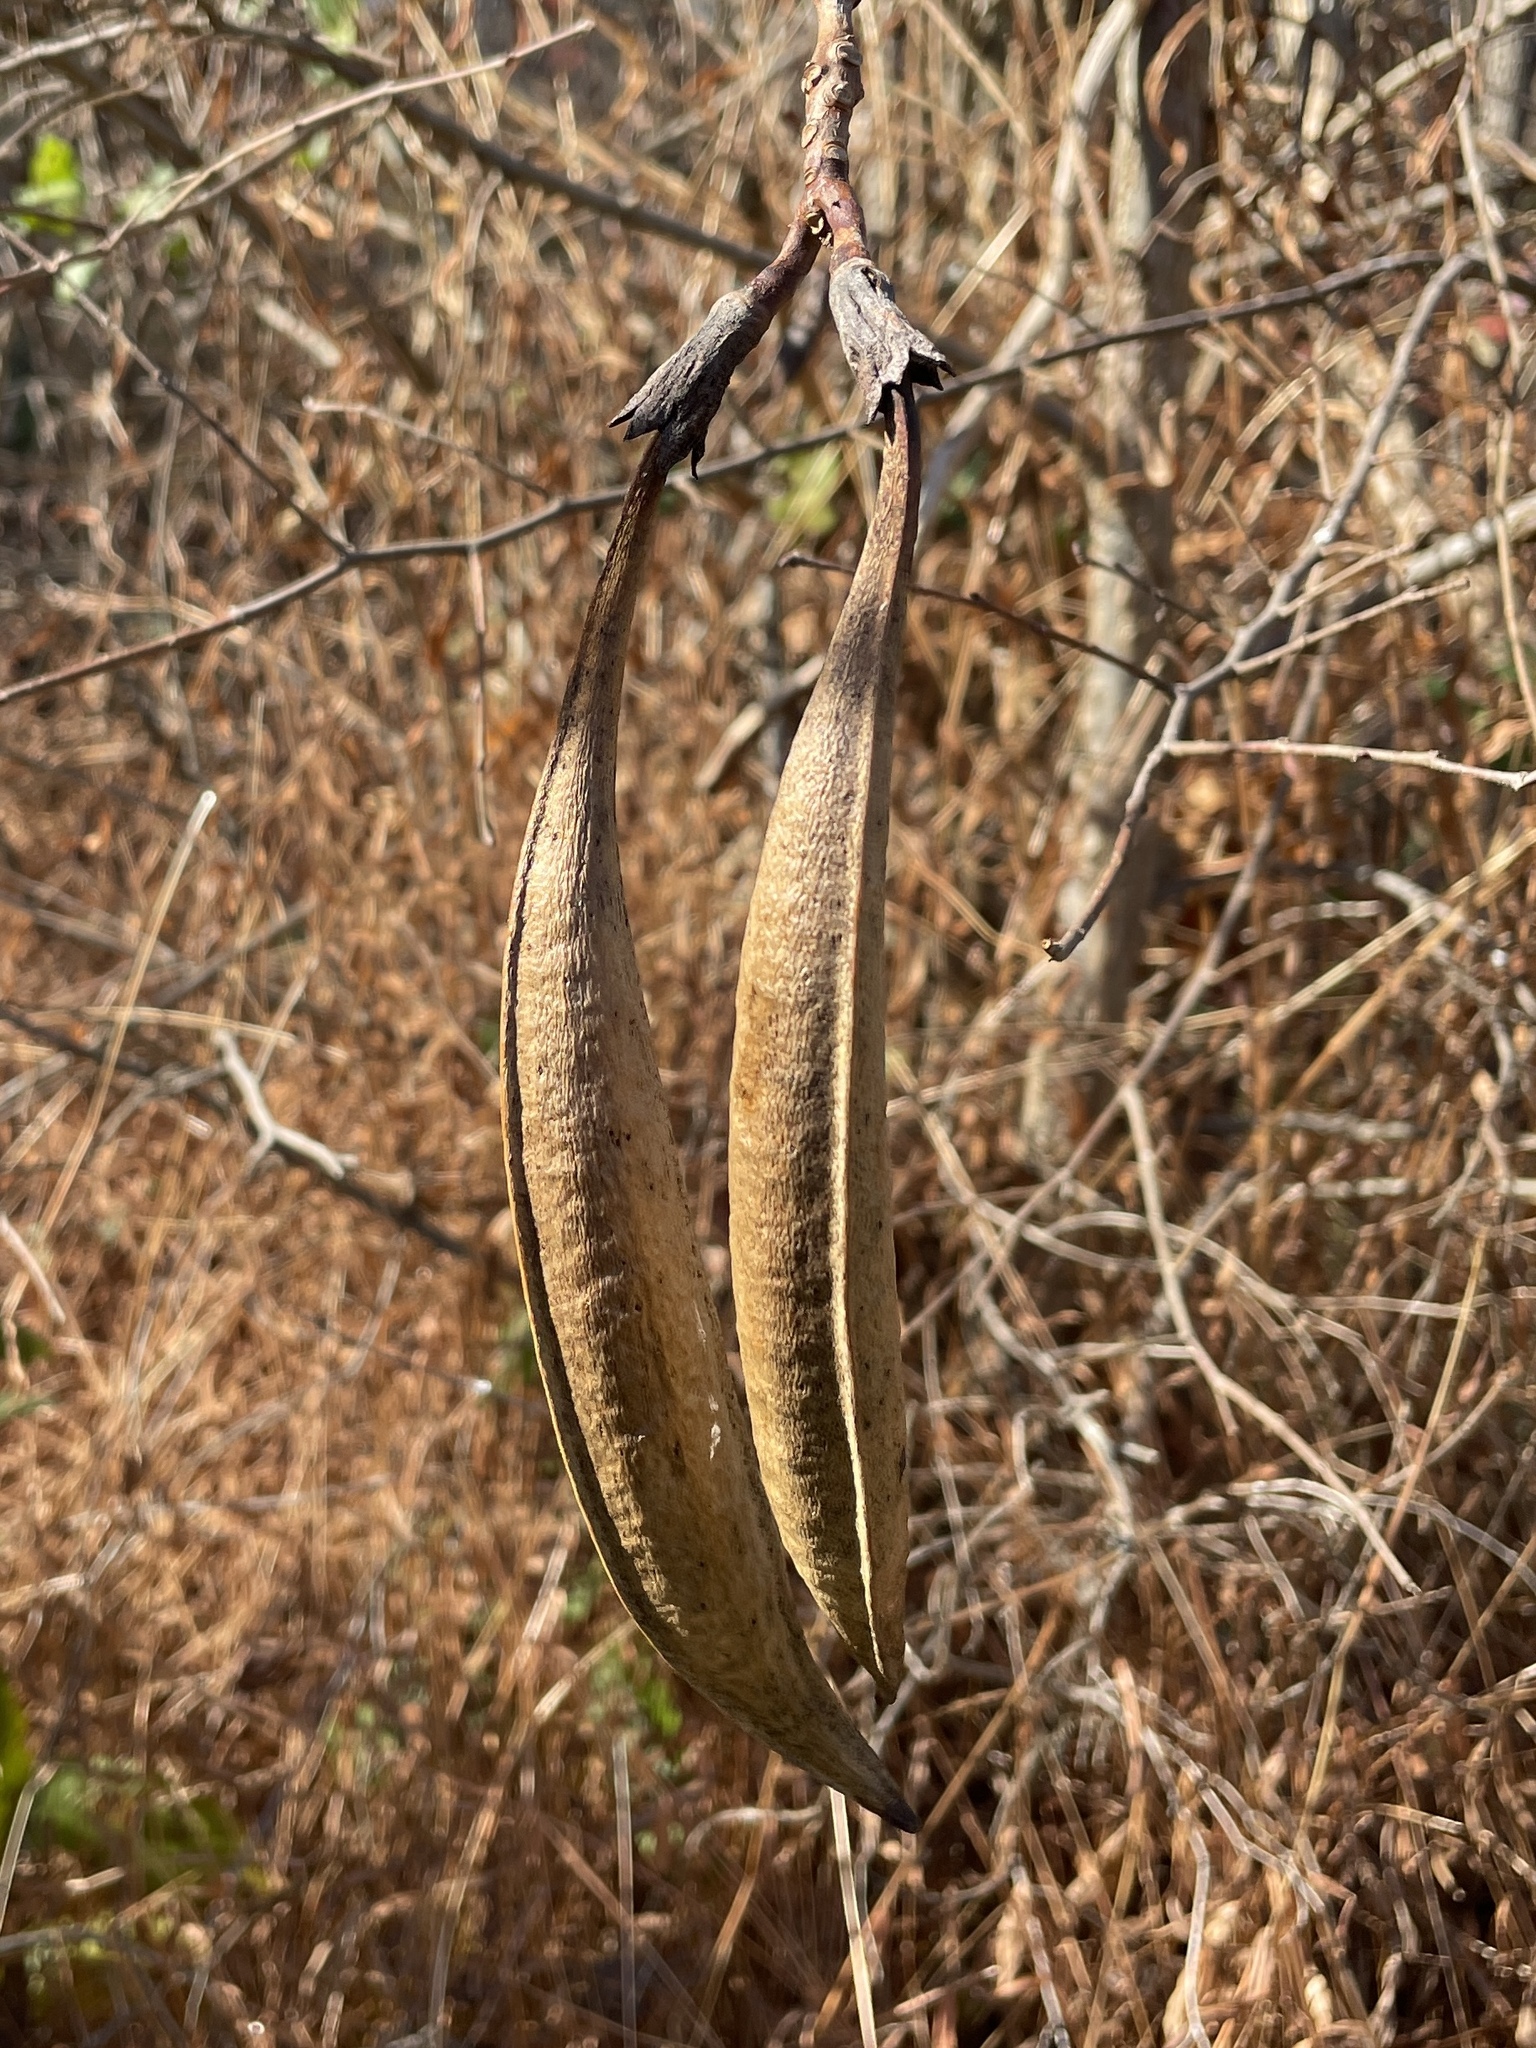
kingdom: Plantae
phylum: Tracheophyta
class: Magnoliopsida
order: Lamiales
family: Bignoniaceae
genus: Campsis
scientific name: Campsis radicans
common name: Trumpet-creeper
